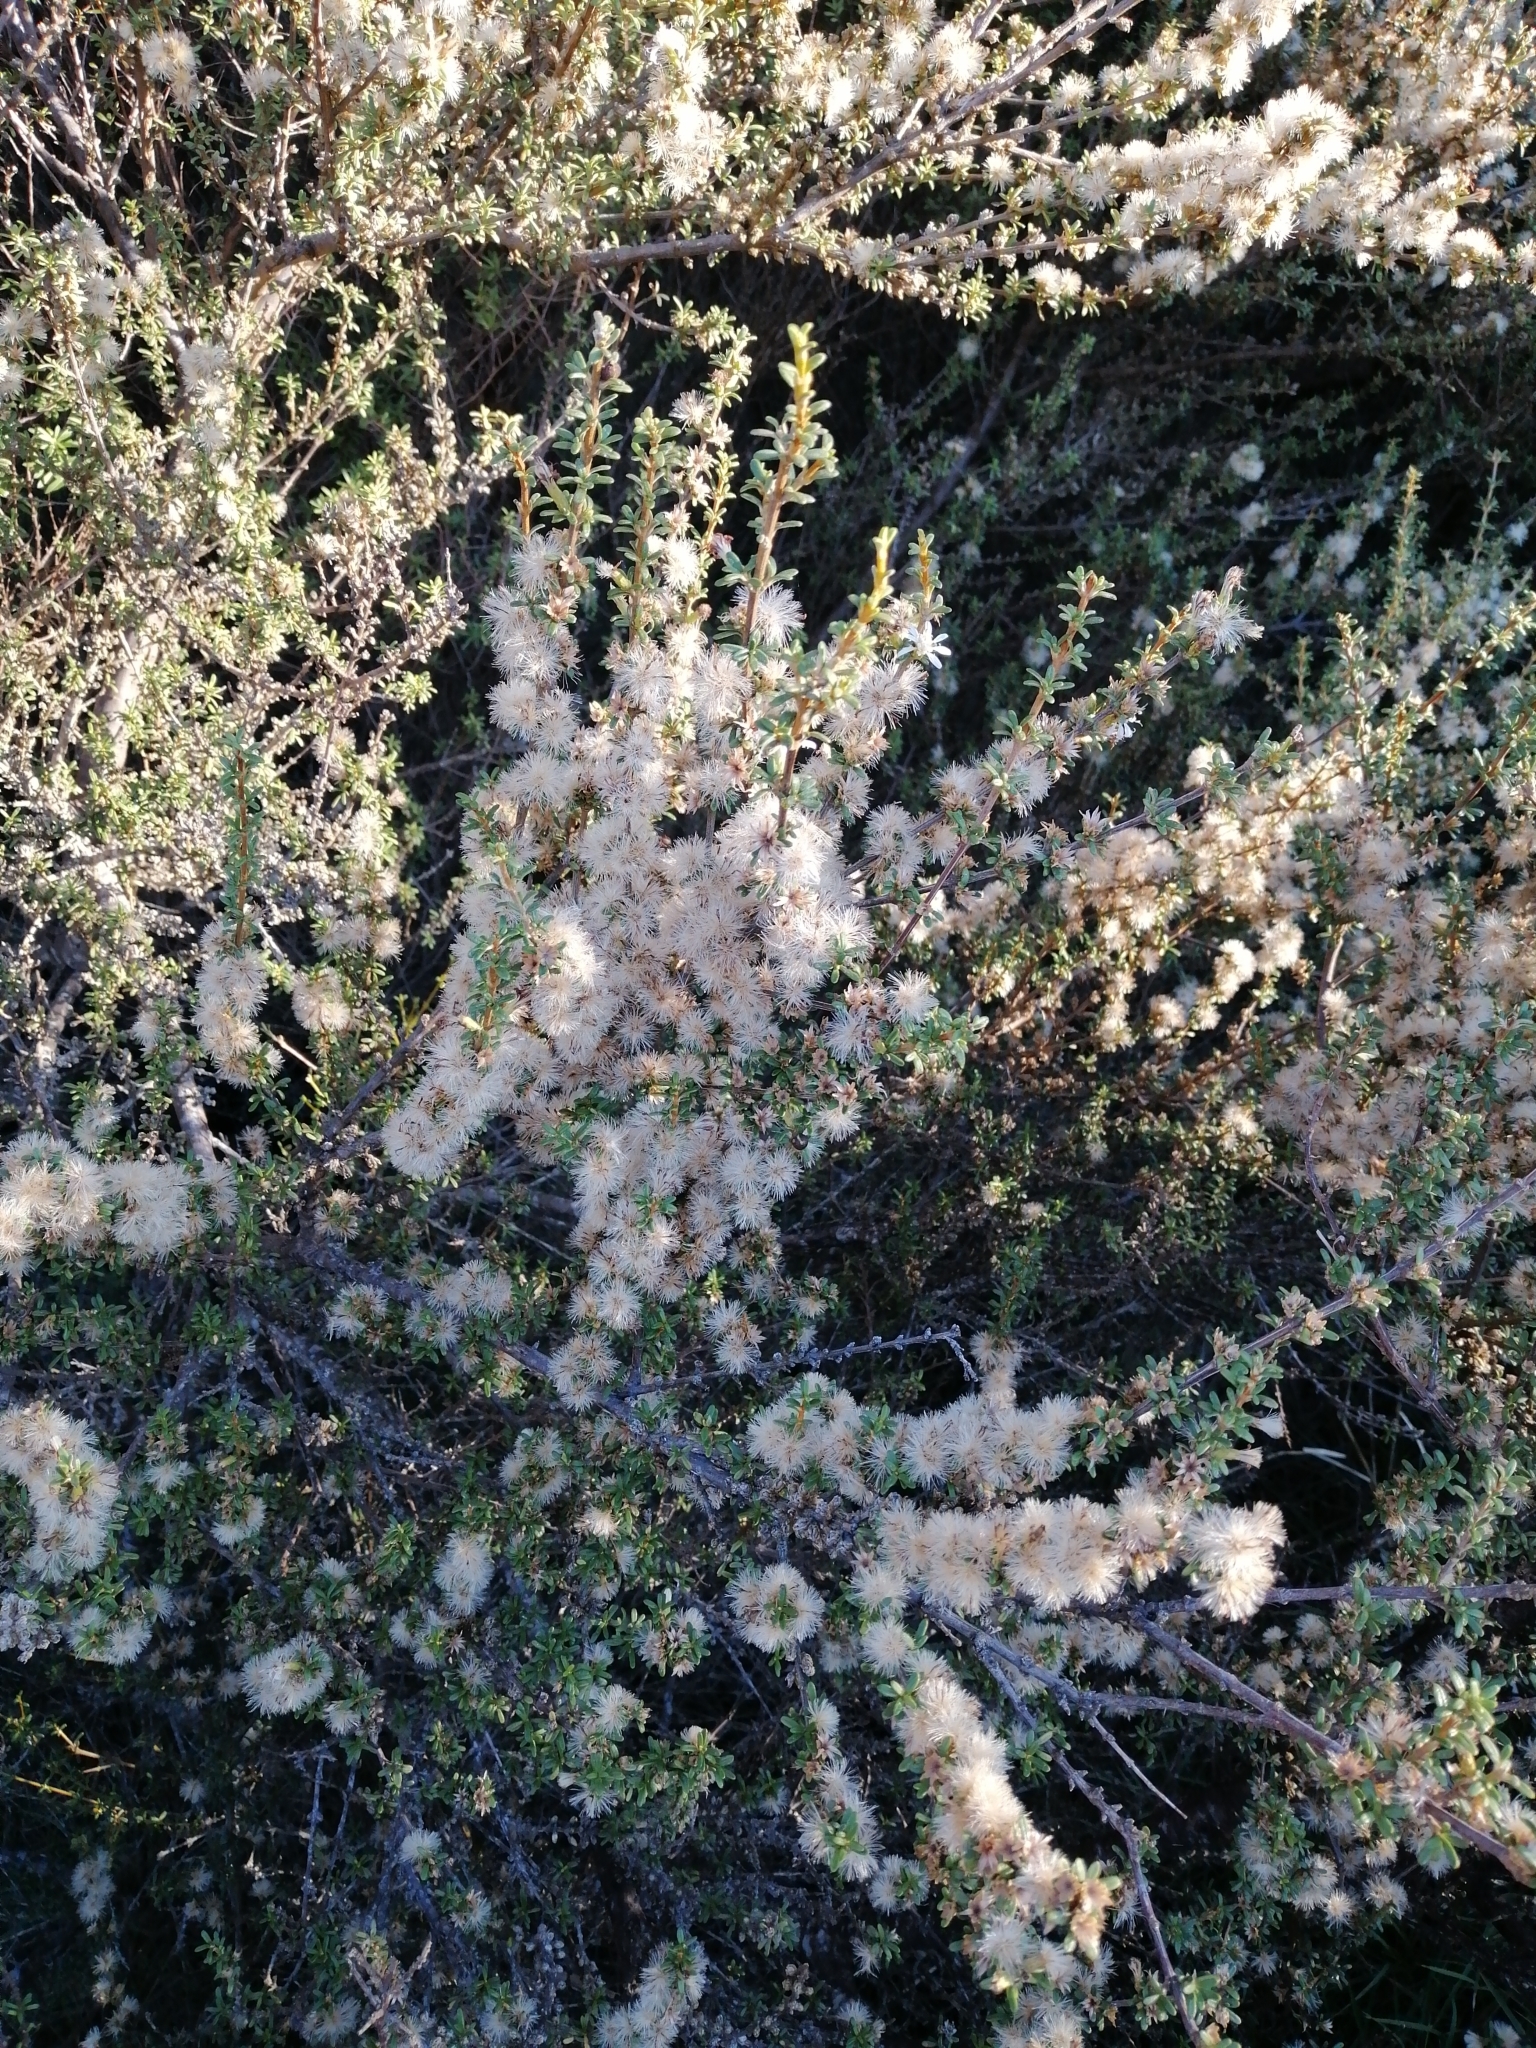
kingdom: Plantae
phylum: Tracheophyta
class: Magnoliopsida
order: Asterales
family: Asteraceae
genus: Olearia
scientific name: Olearia solandri
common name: Coastal daisybush
